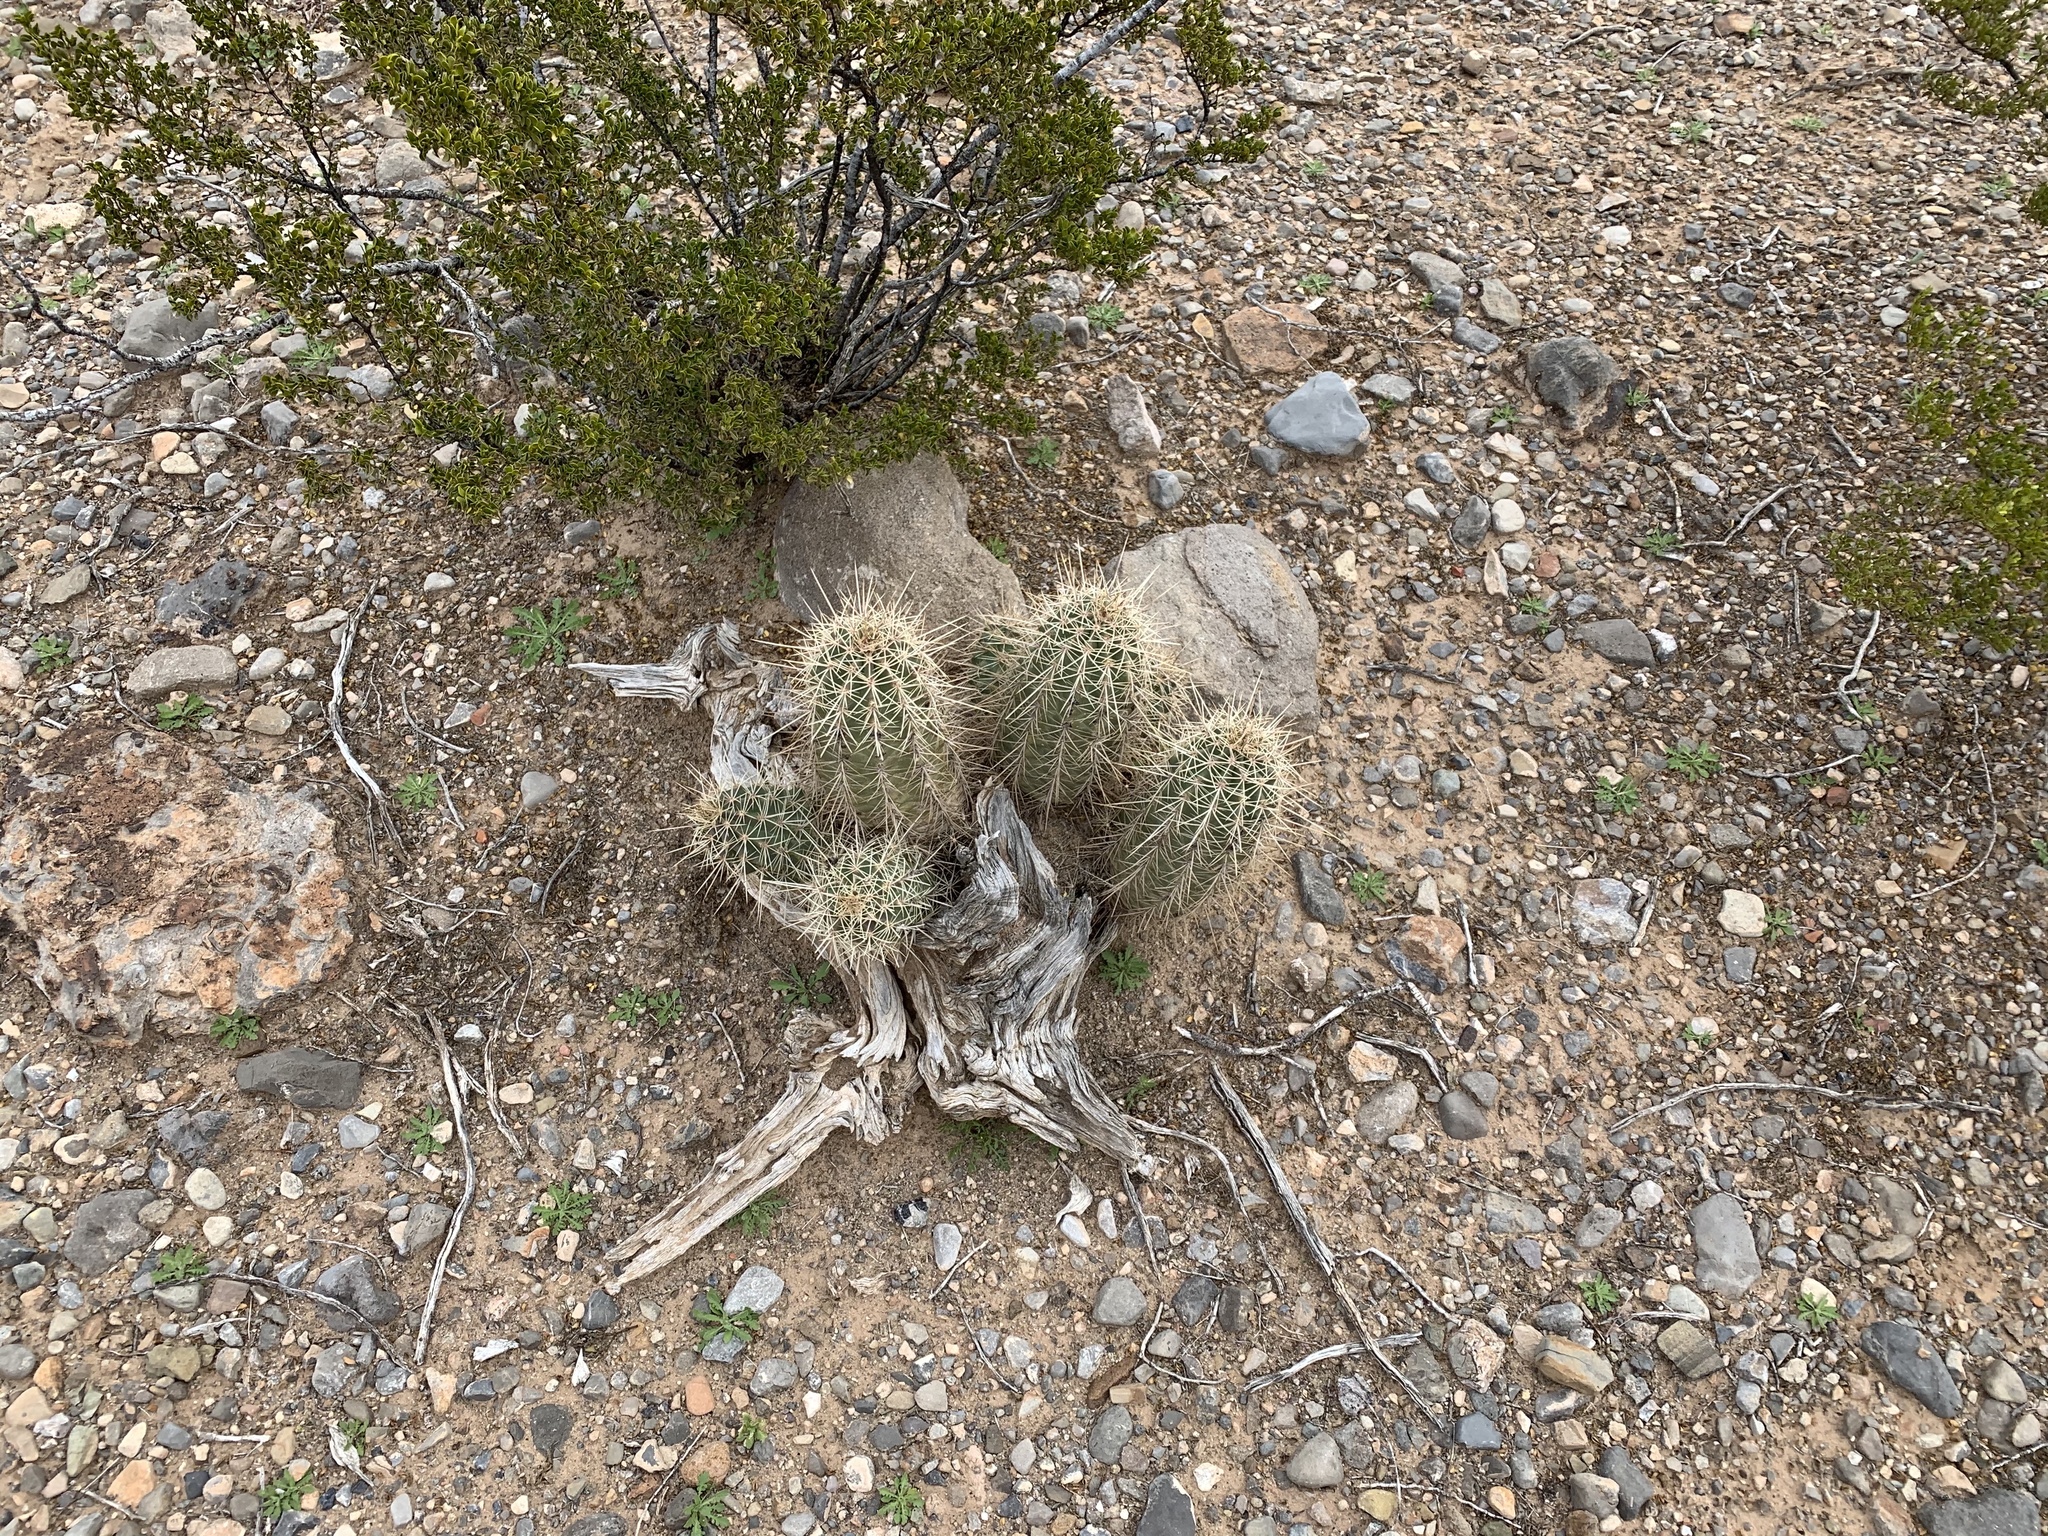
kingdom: Plantae
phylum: Tracheophyta
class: Magnoliopsida
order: Caryophyllales
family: Cactaceae
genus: Echinocereus
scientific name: Echinocereus coccineus
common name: Scarlet hedgehog cactus
